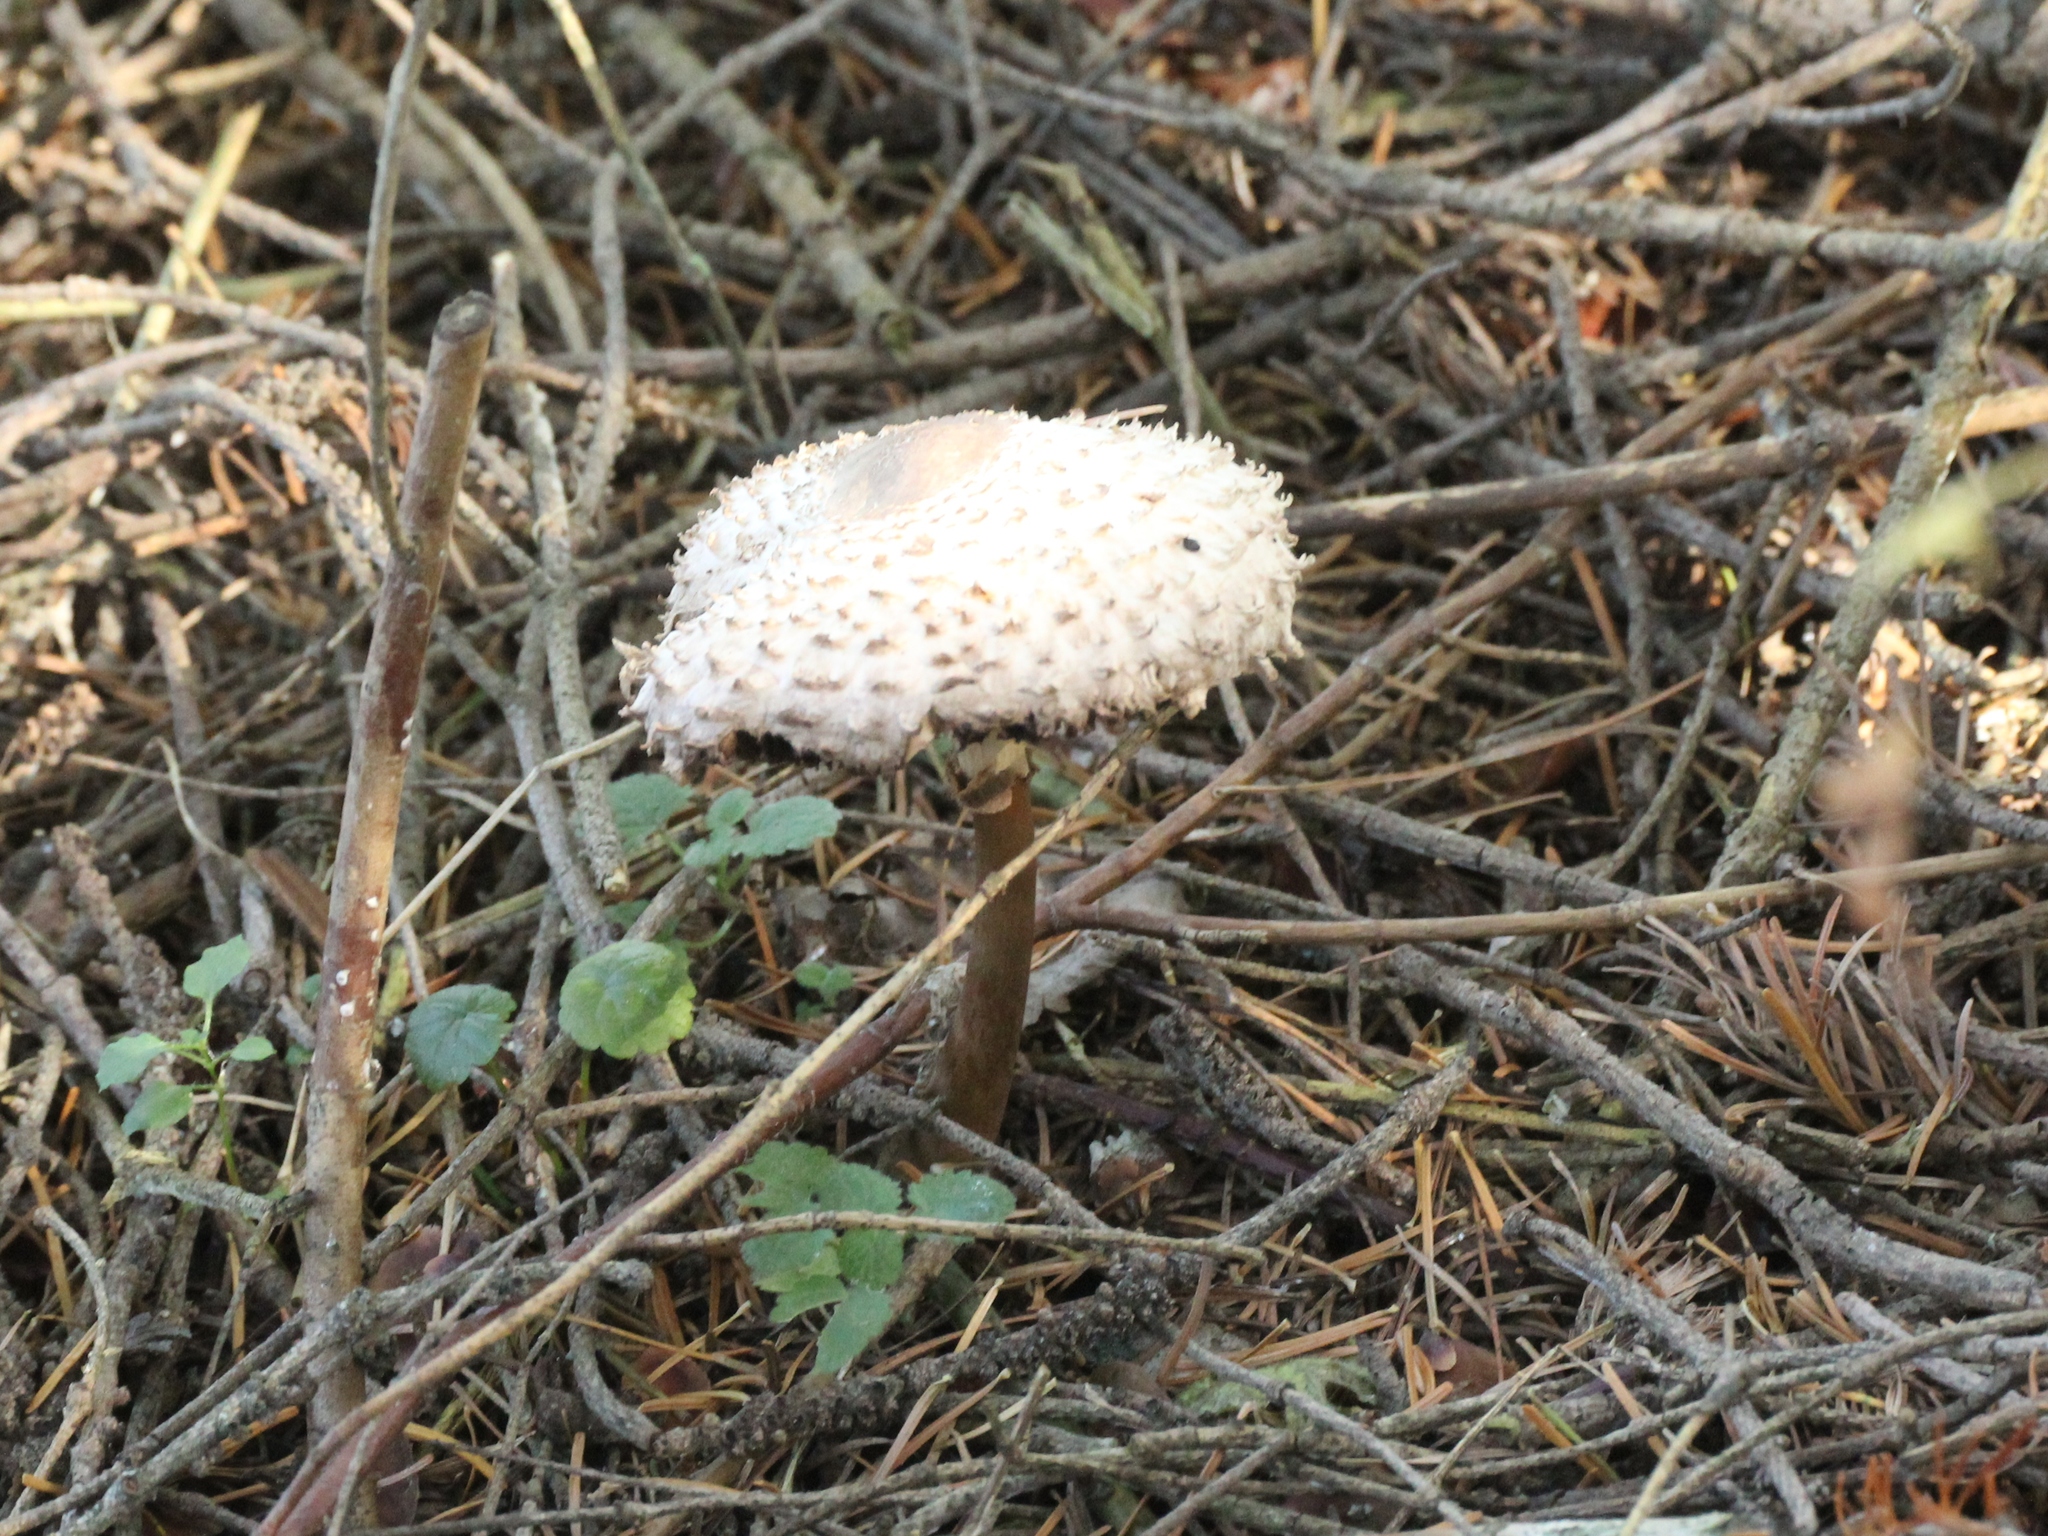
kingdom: Fungi
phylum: Basidiomycota
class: Agaricomycetes
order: Agaricales
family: Agaricaceae
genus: Chlorophyllum
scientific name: Chlorophyllum rhacodes
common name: Shaggy parasol
